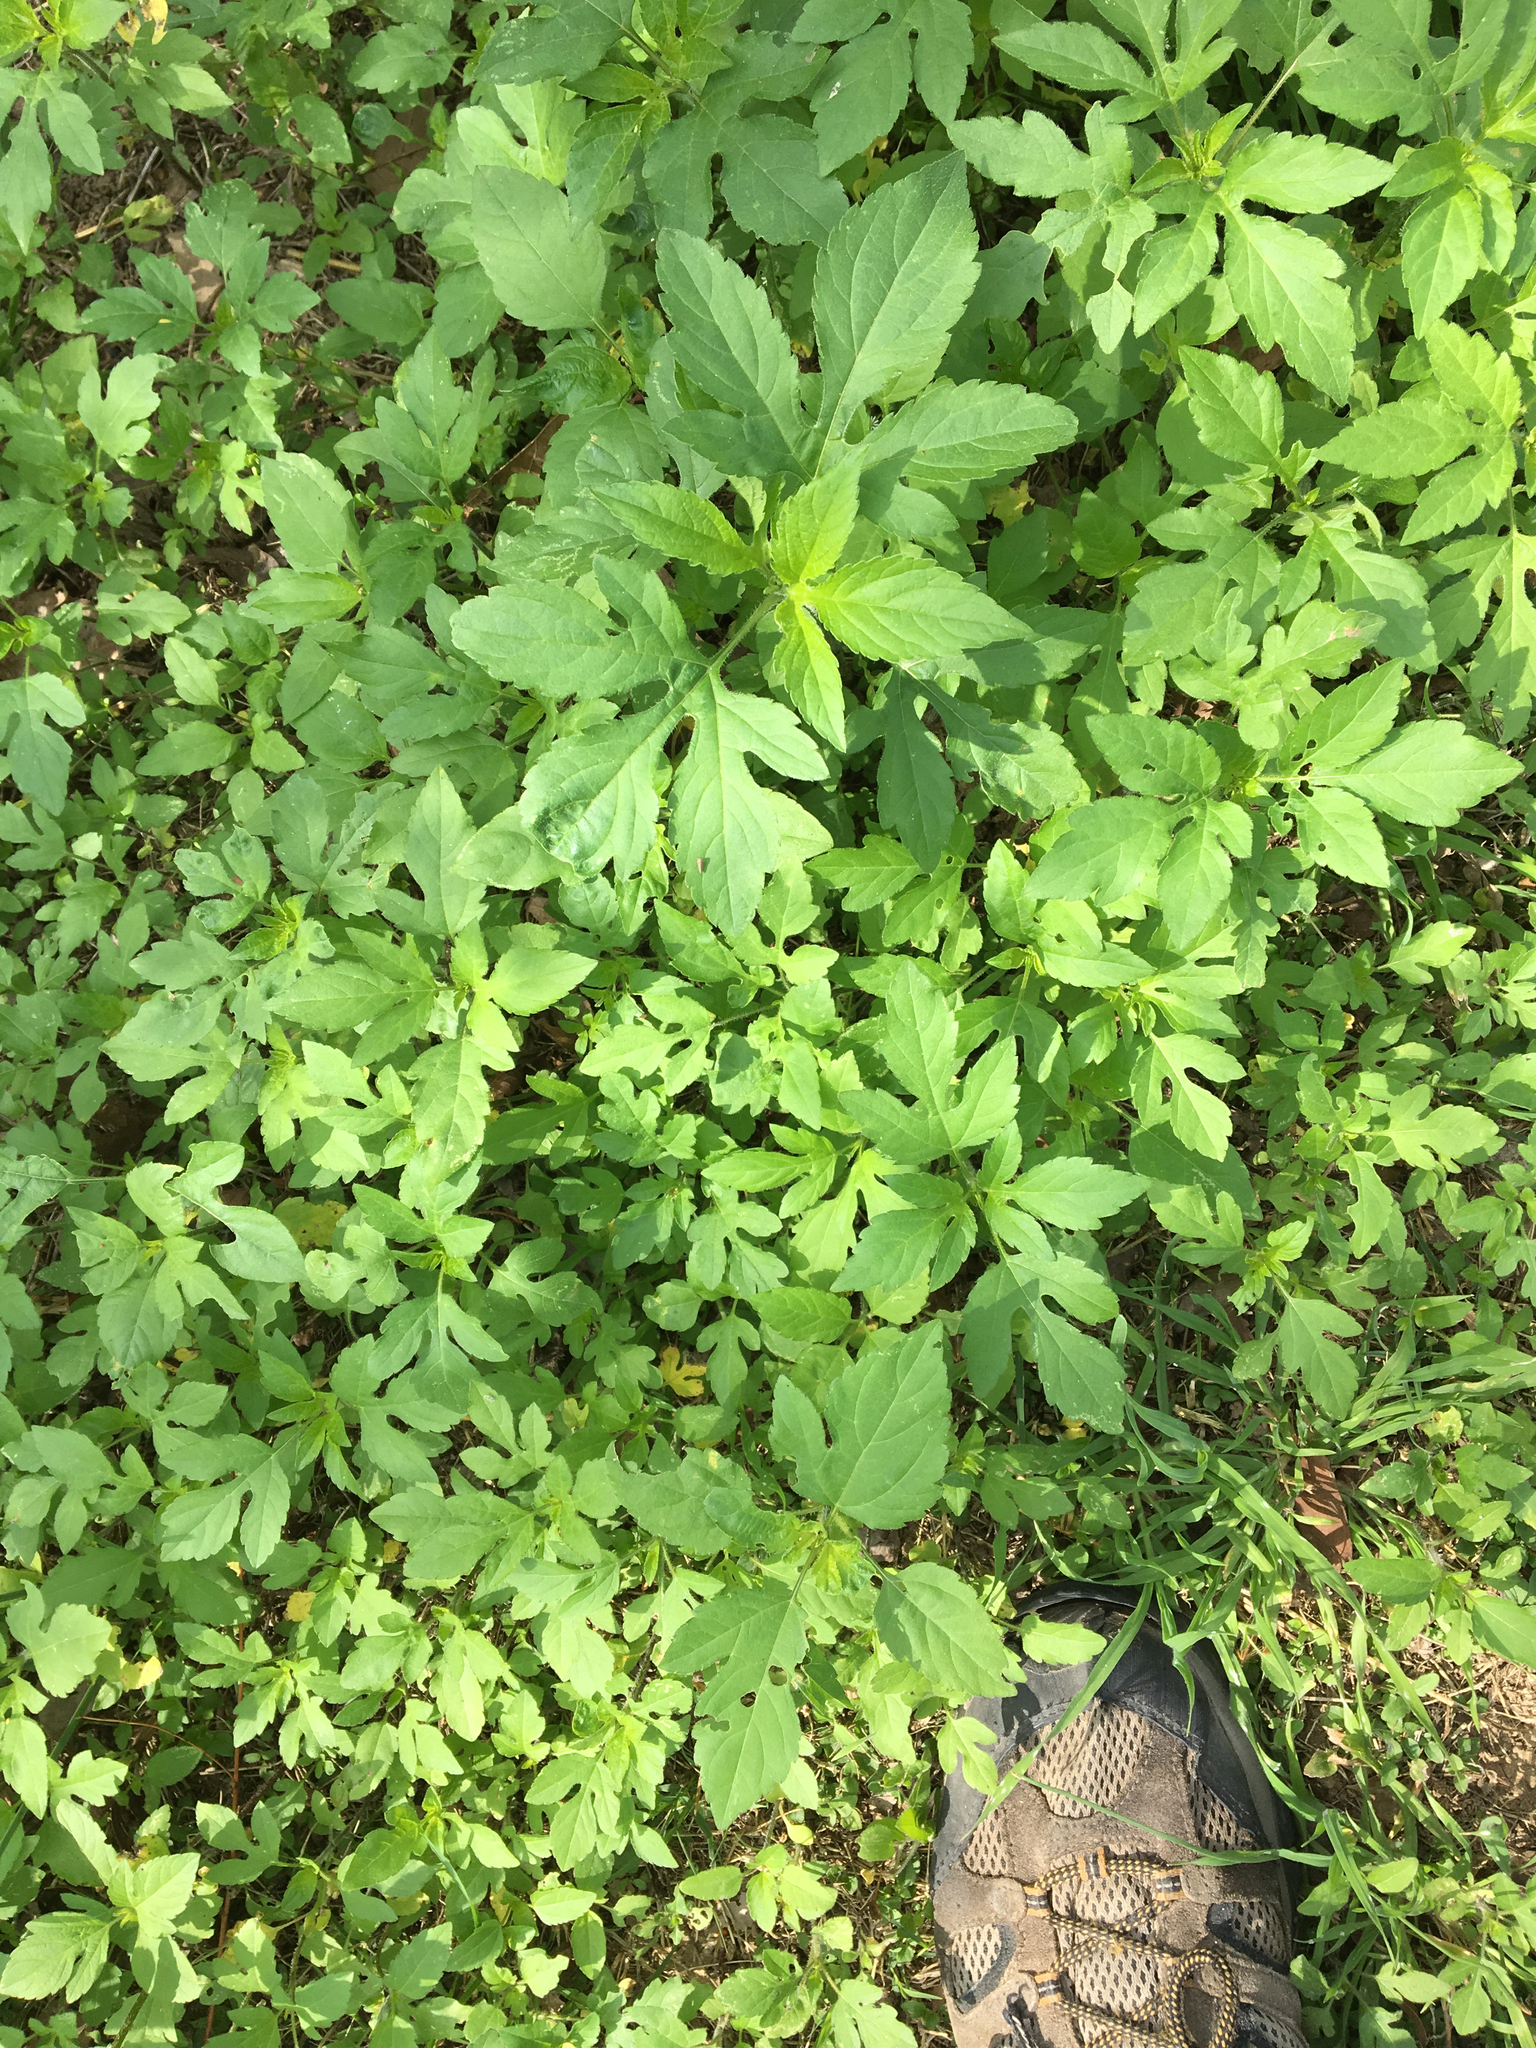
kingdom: Plantae
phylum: Tracheophyta
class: Magnoliopsida
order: Asterales
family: Asteraceae
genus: Ambrosia
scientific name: Ambrosia trifida
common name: Giant ragweed
